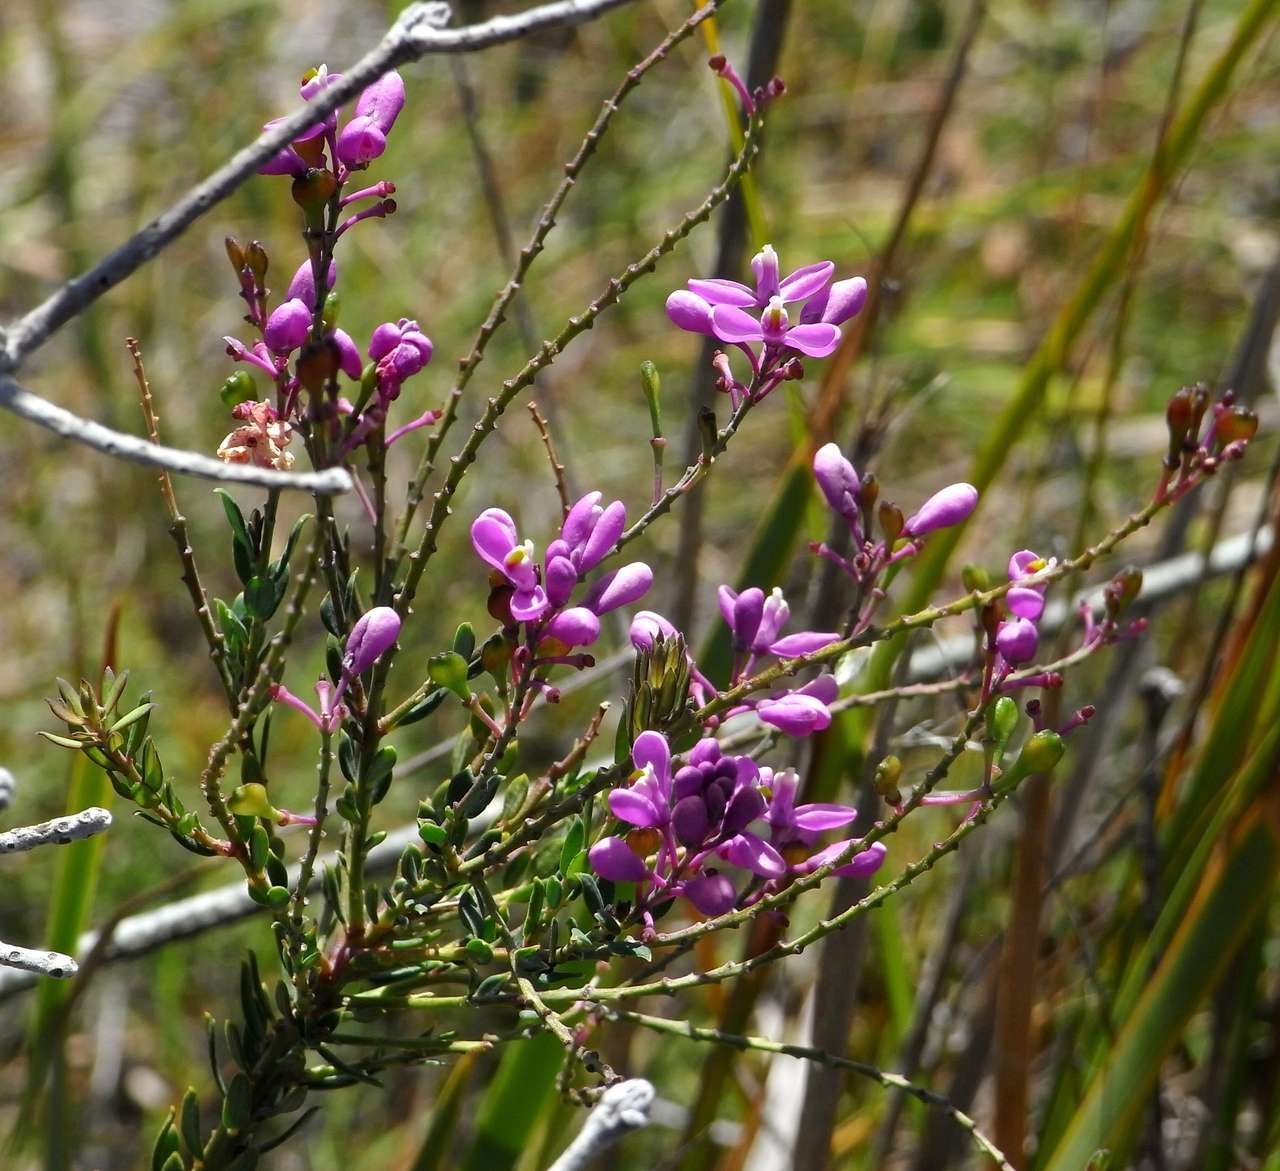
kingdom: Plantae
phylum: Tracheophyta
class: Magnoliopsida
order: Fabales
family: Polygalaceae
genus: Comesperma
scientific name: Comesperma ericinum
